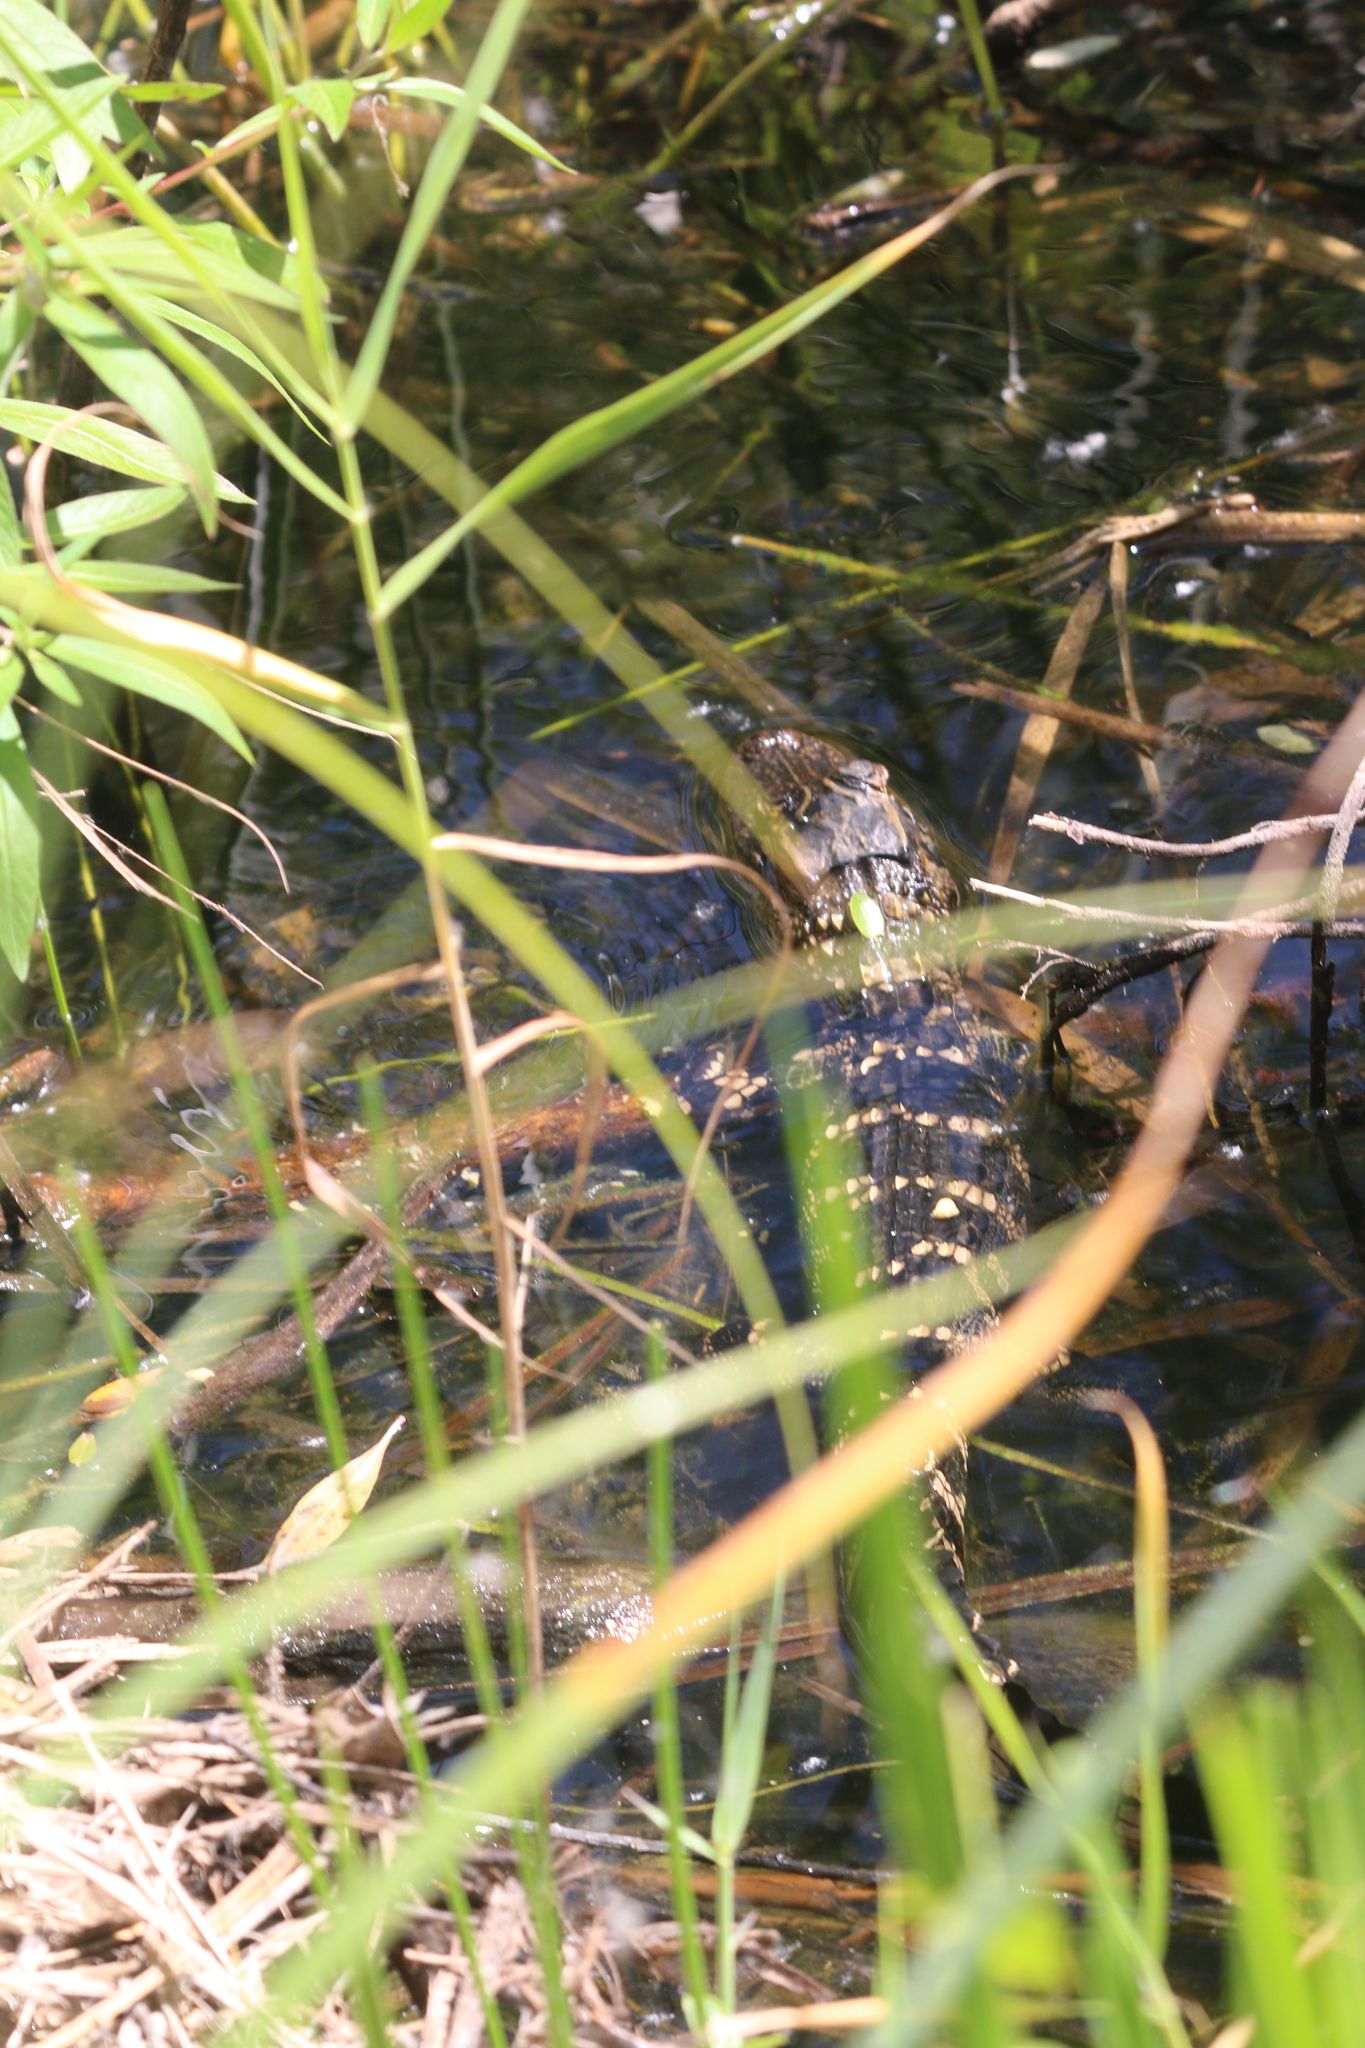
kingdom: Animalia
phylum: Chordata
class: Crocodylia
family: Alligatoridae
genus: Alligator
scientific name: Alligator mississippiensis
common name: American alligator
